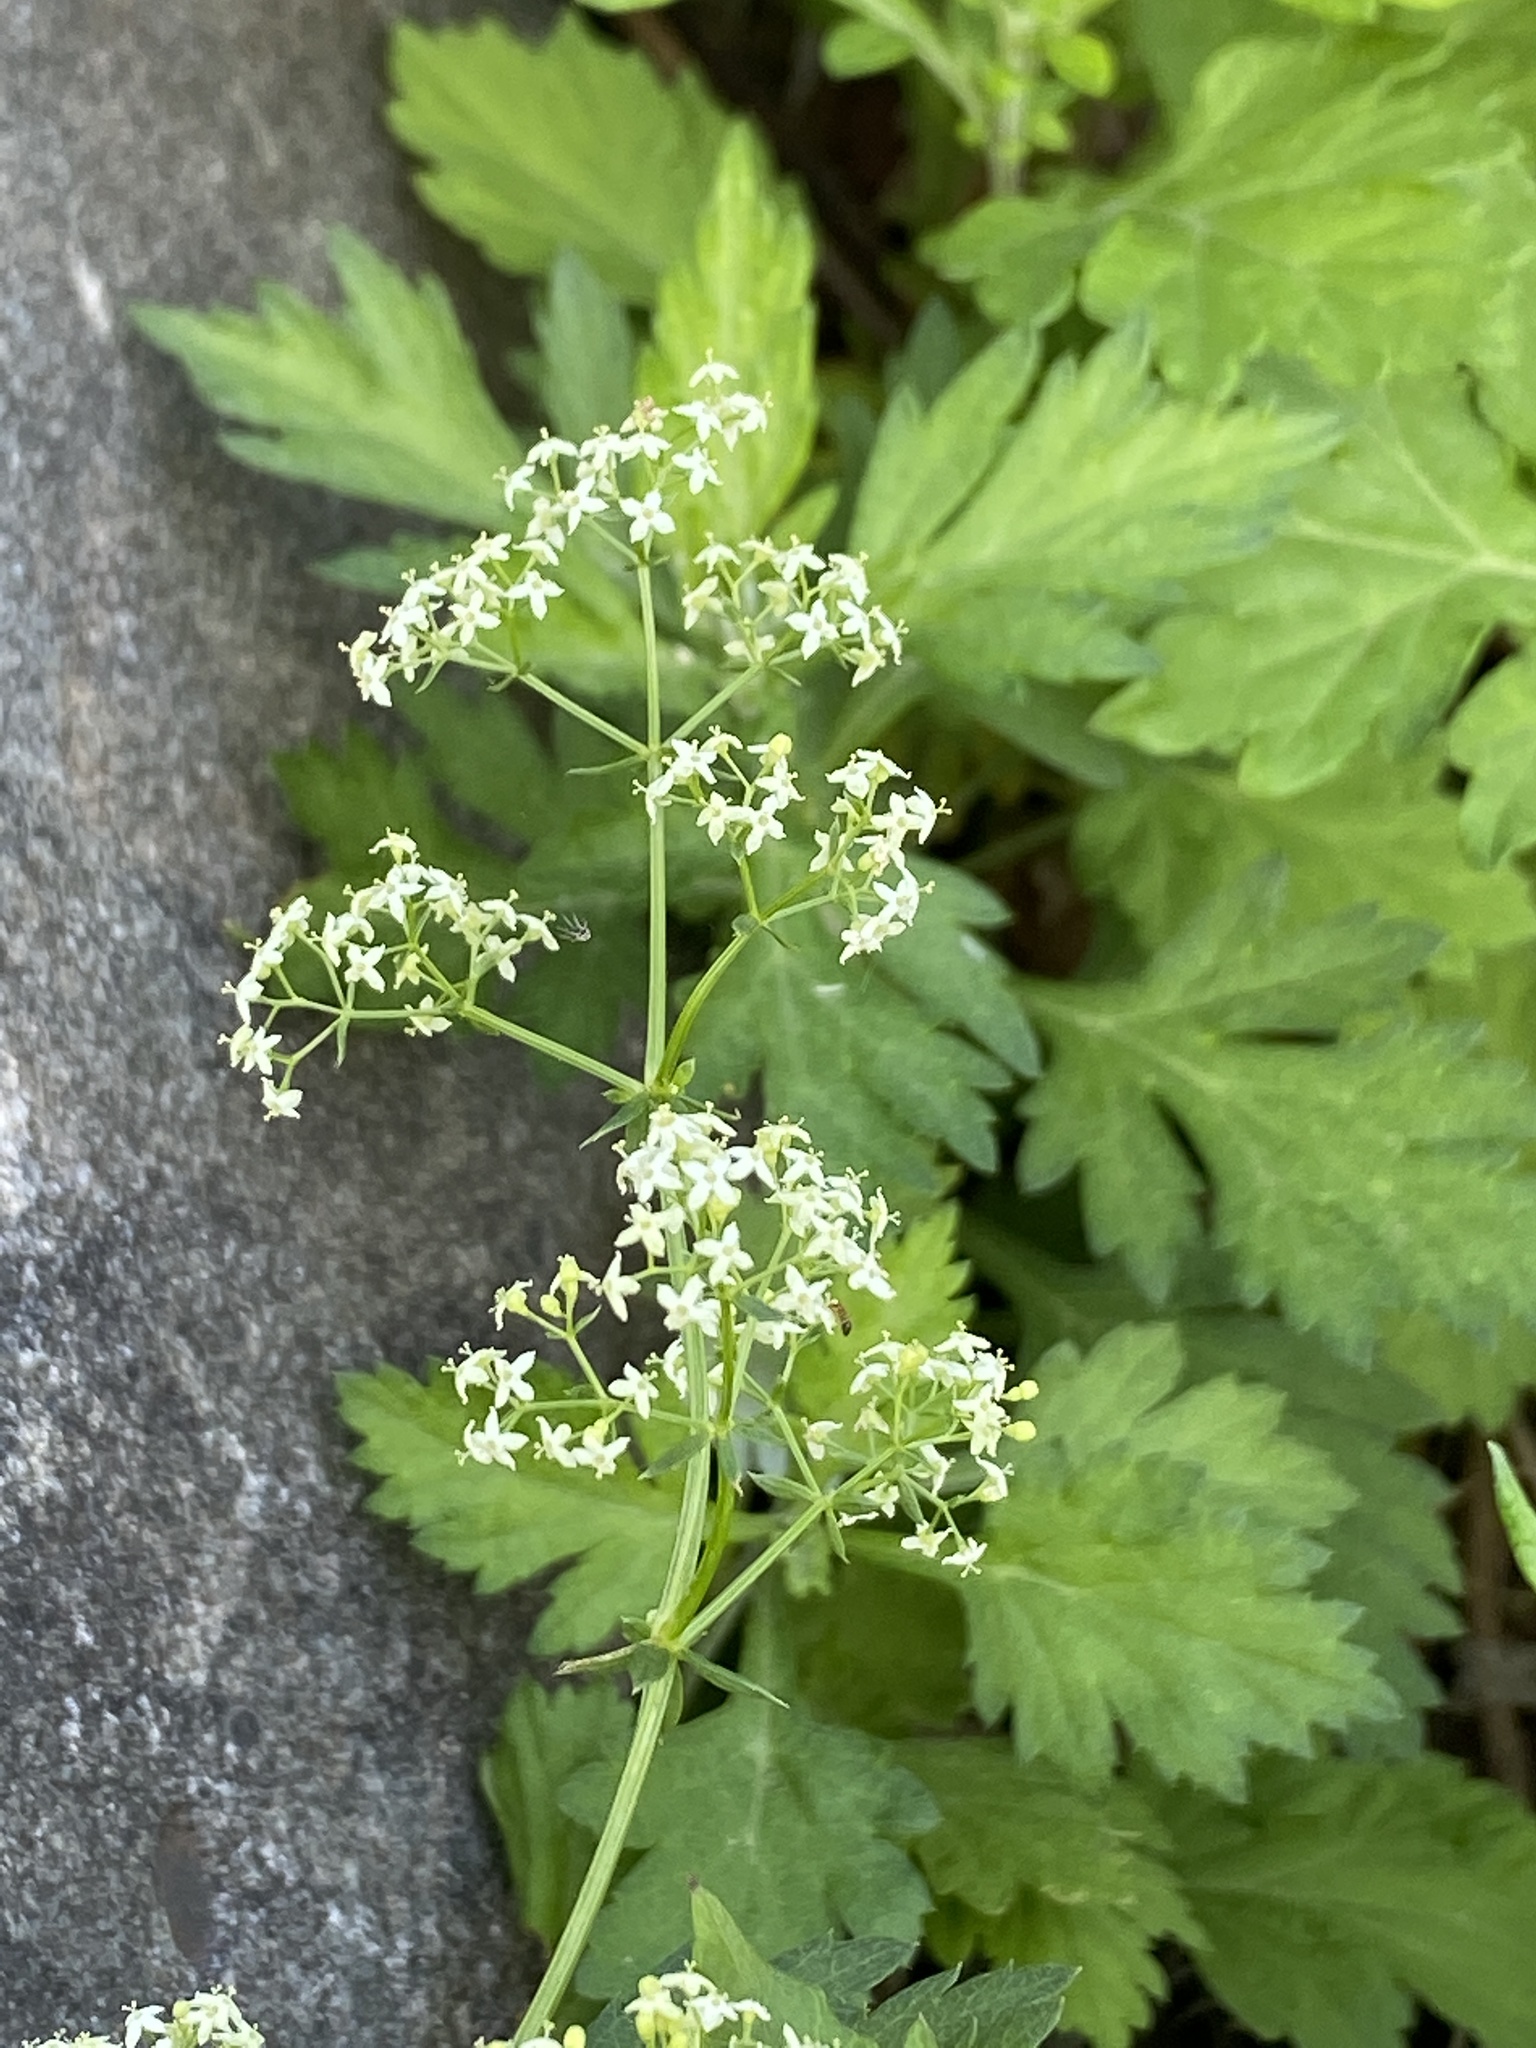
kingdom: Plantae
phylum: Tracheophyta
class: Magnoliopsida
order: Gentianales
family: Rubiaceae
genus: Galium
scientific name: Galium mollugo
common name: Hedge bedstraw
